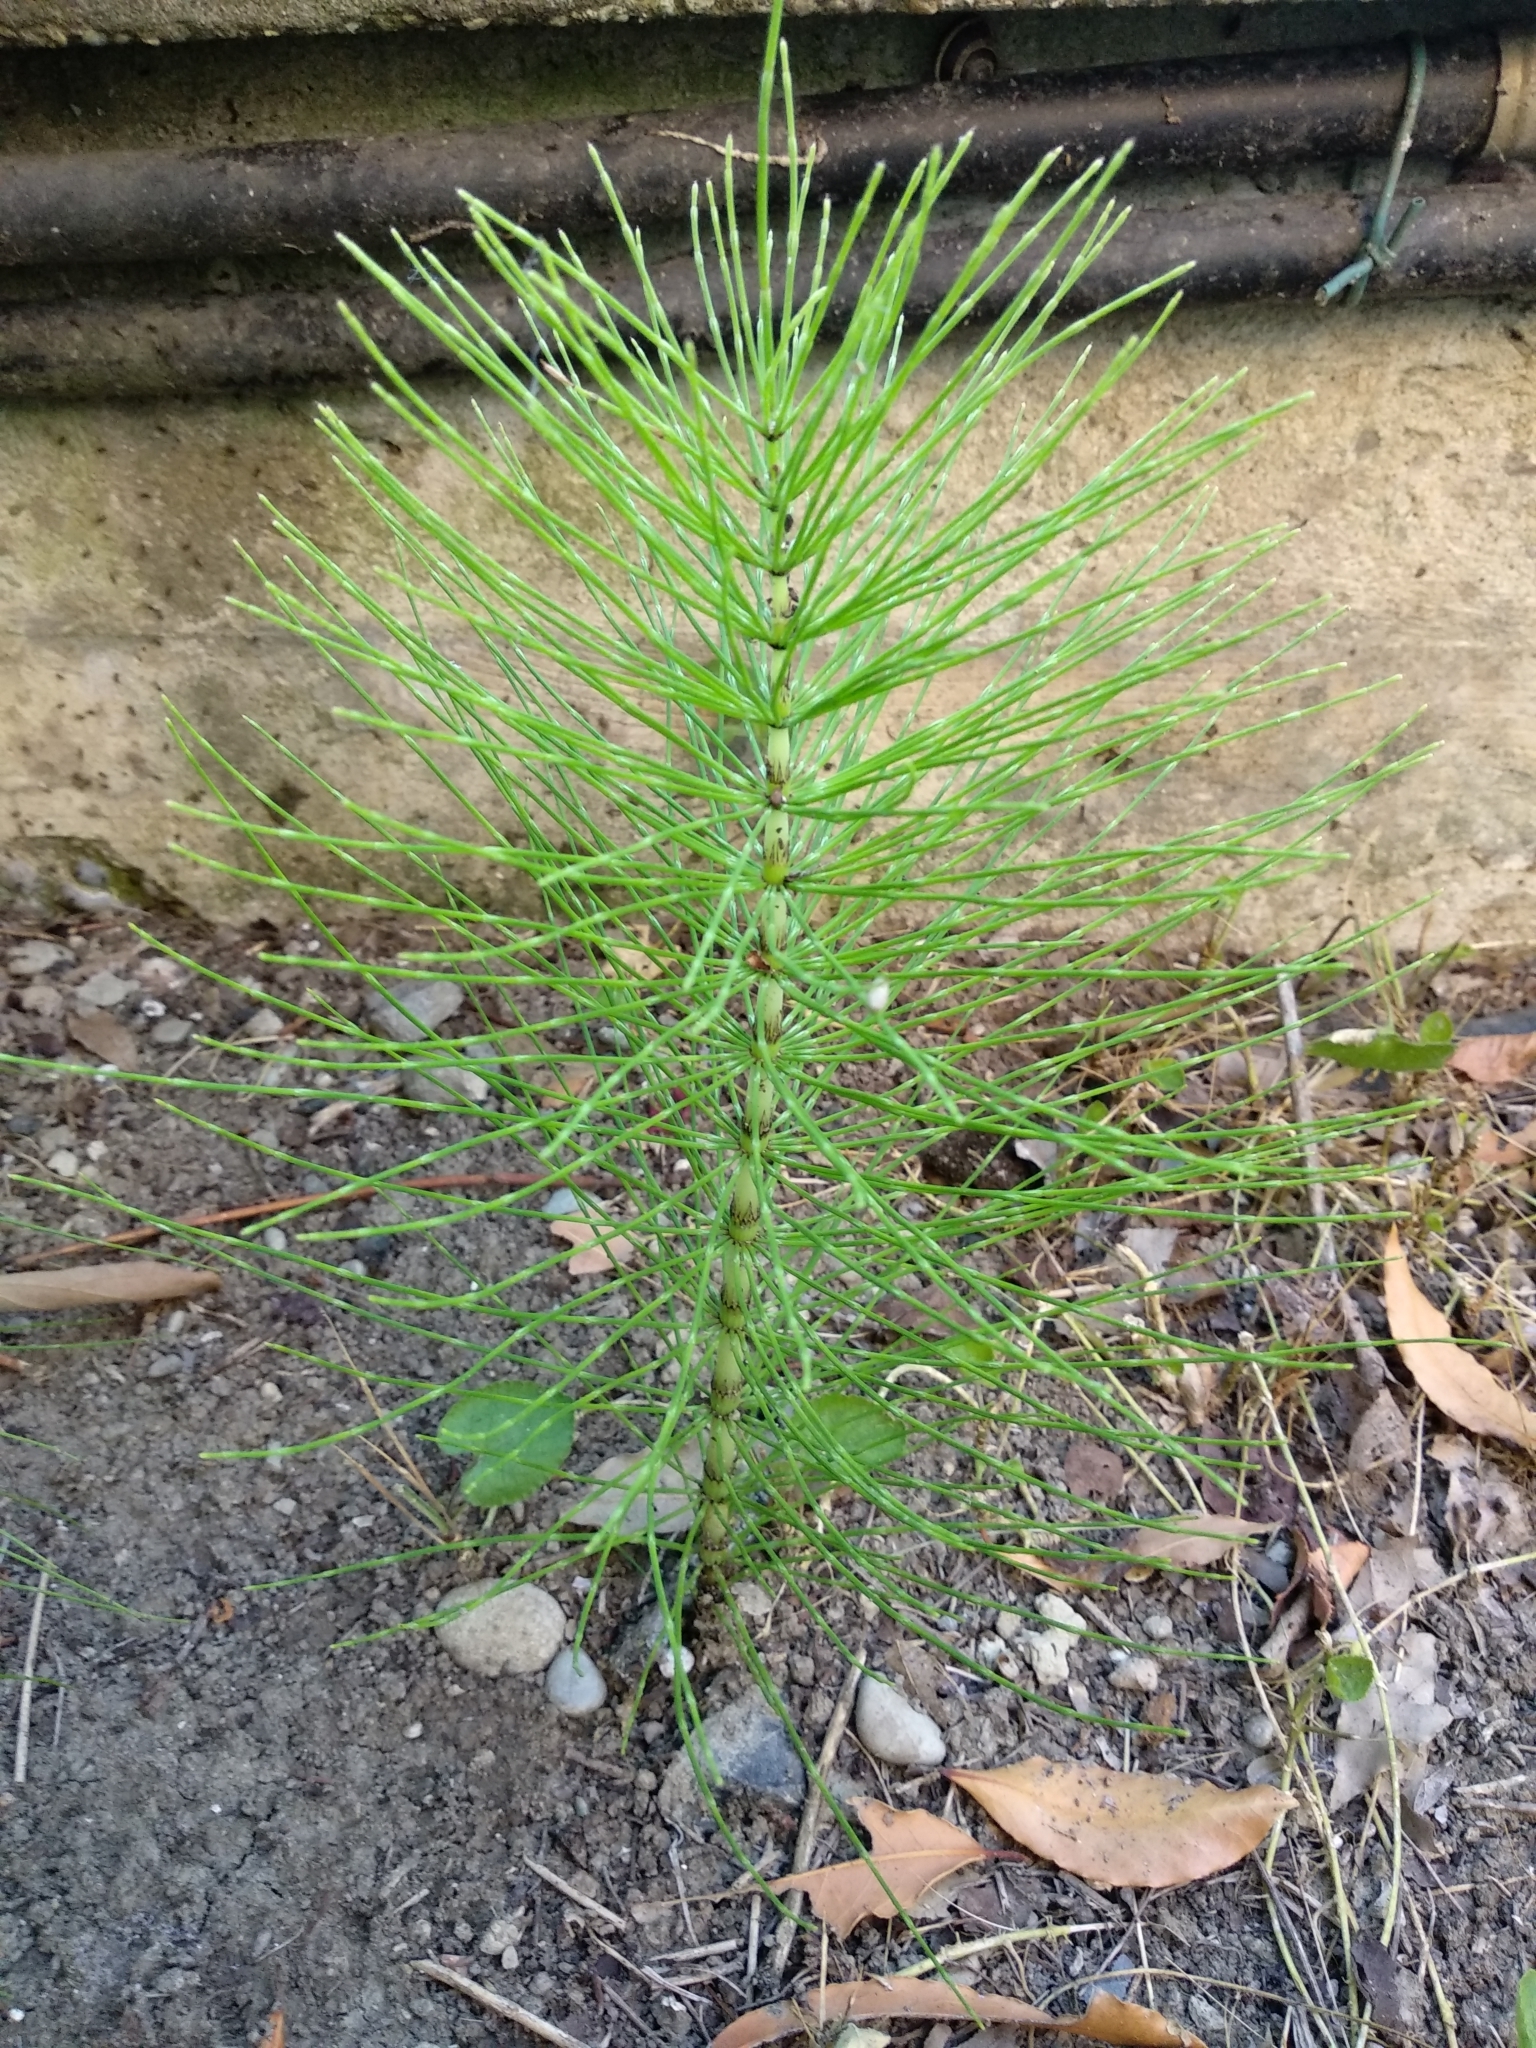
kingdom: Plantae
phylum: Tracheophyta
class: Polypodiopsida
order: Equisetales
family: Equisetaceae
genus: Equisetum
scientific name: Equisetum telmateia
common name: Great horsetail
